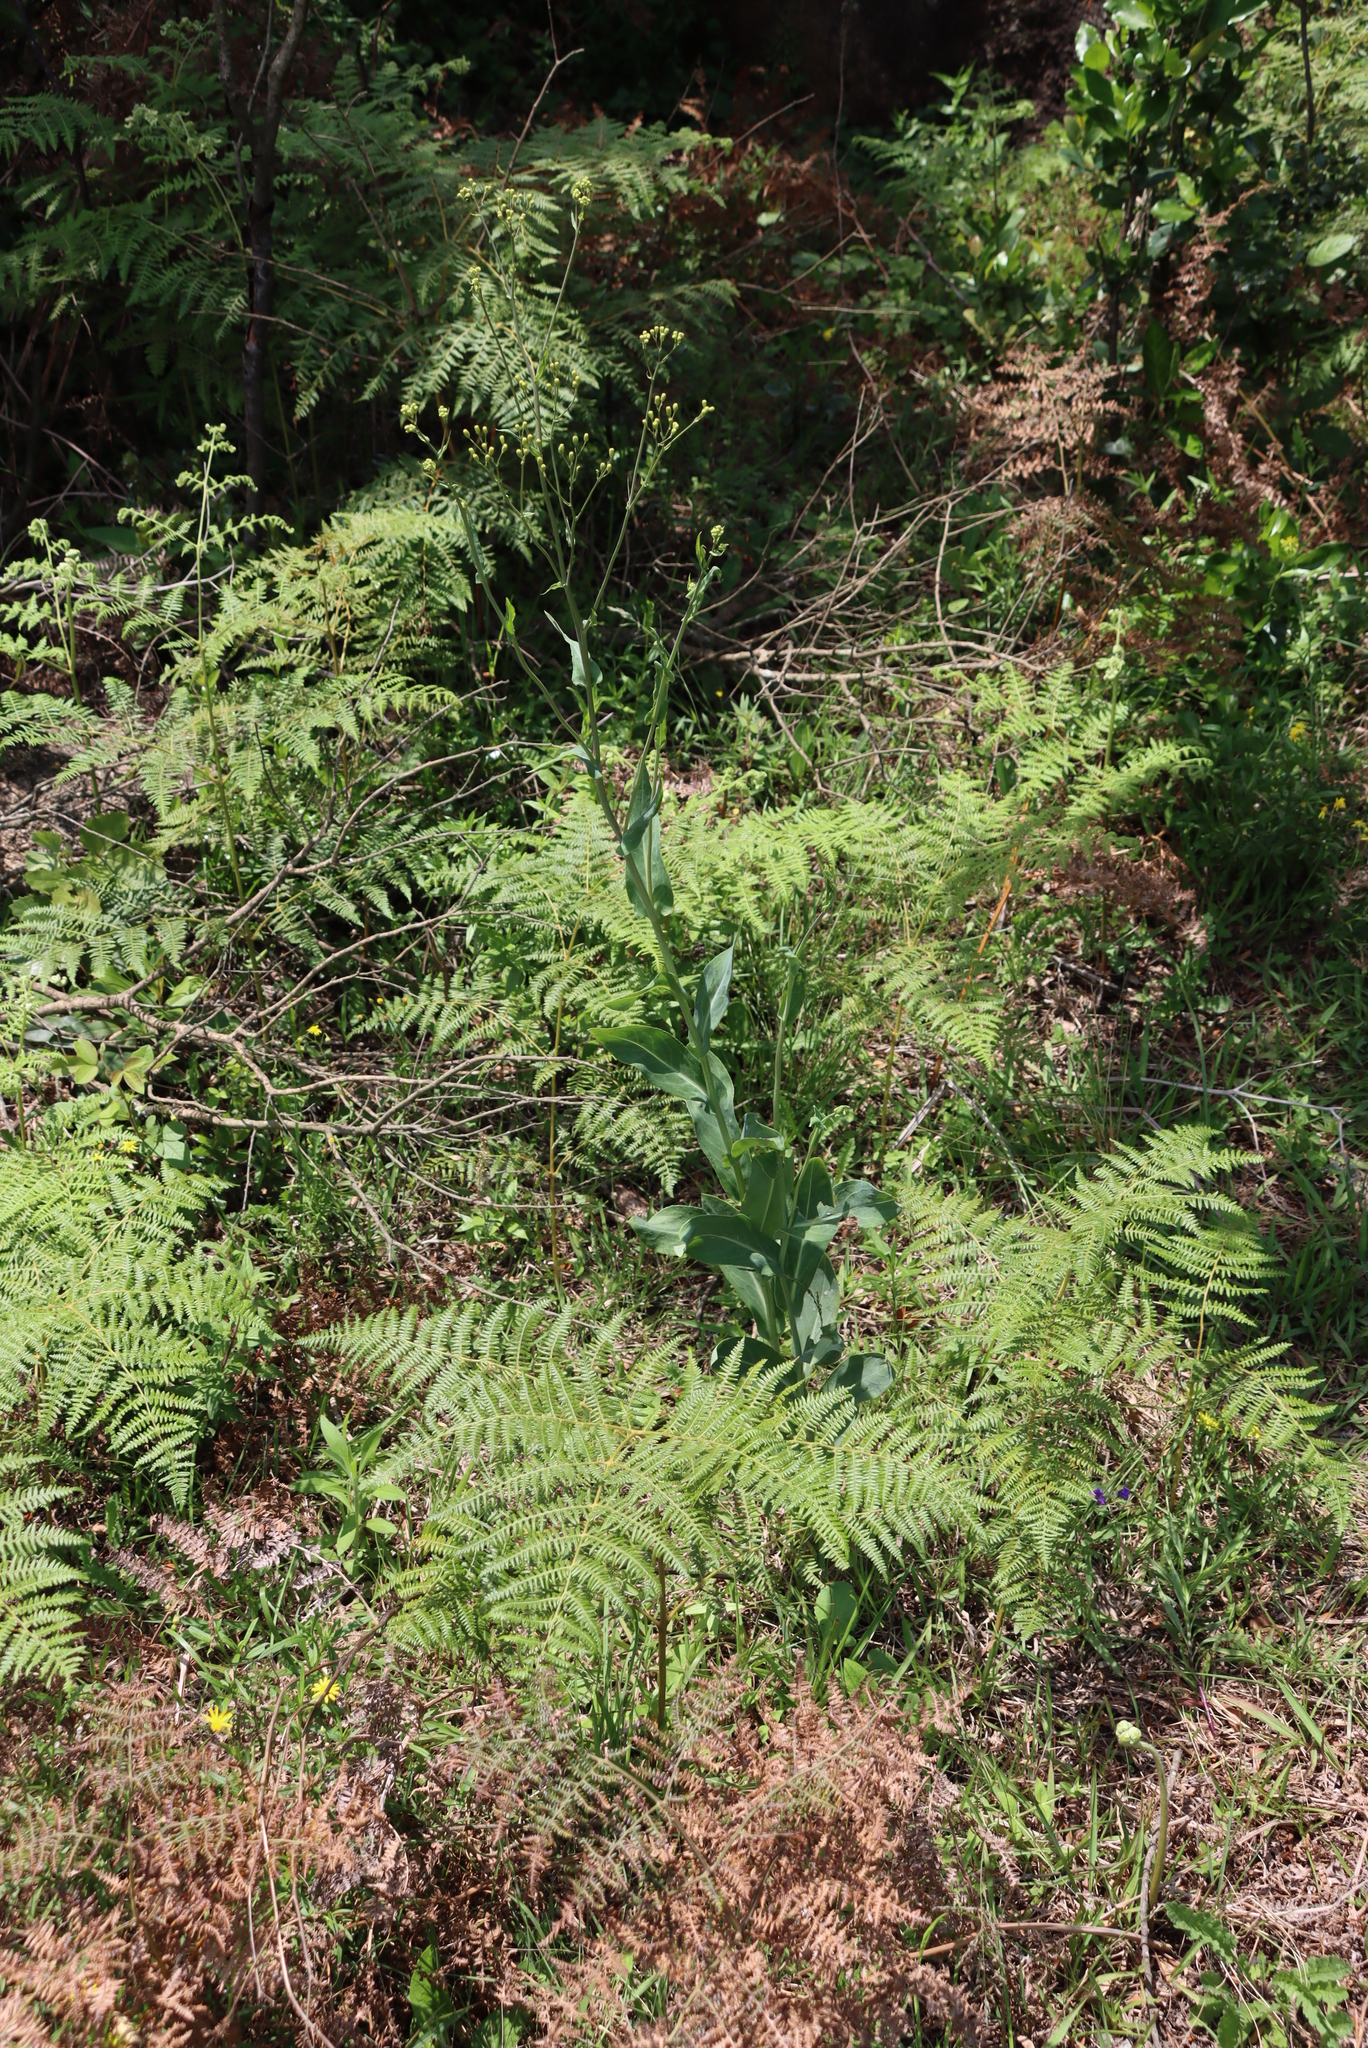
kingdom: Plantae
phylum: Tracheophyta
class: Polypodiopsida
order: Polypodiales
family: Dennstaedtiaceae
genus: Pteridium
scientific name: Pteridium aquilinum
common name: Bracken
